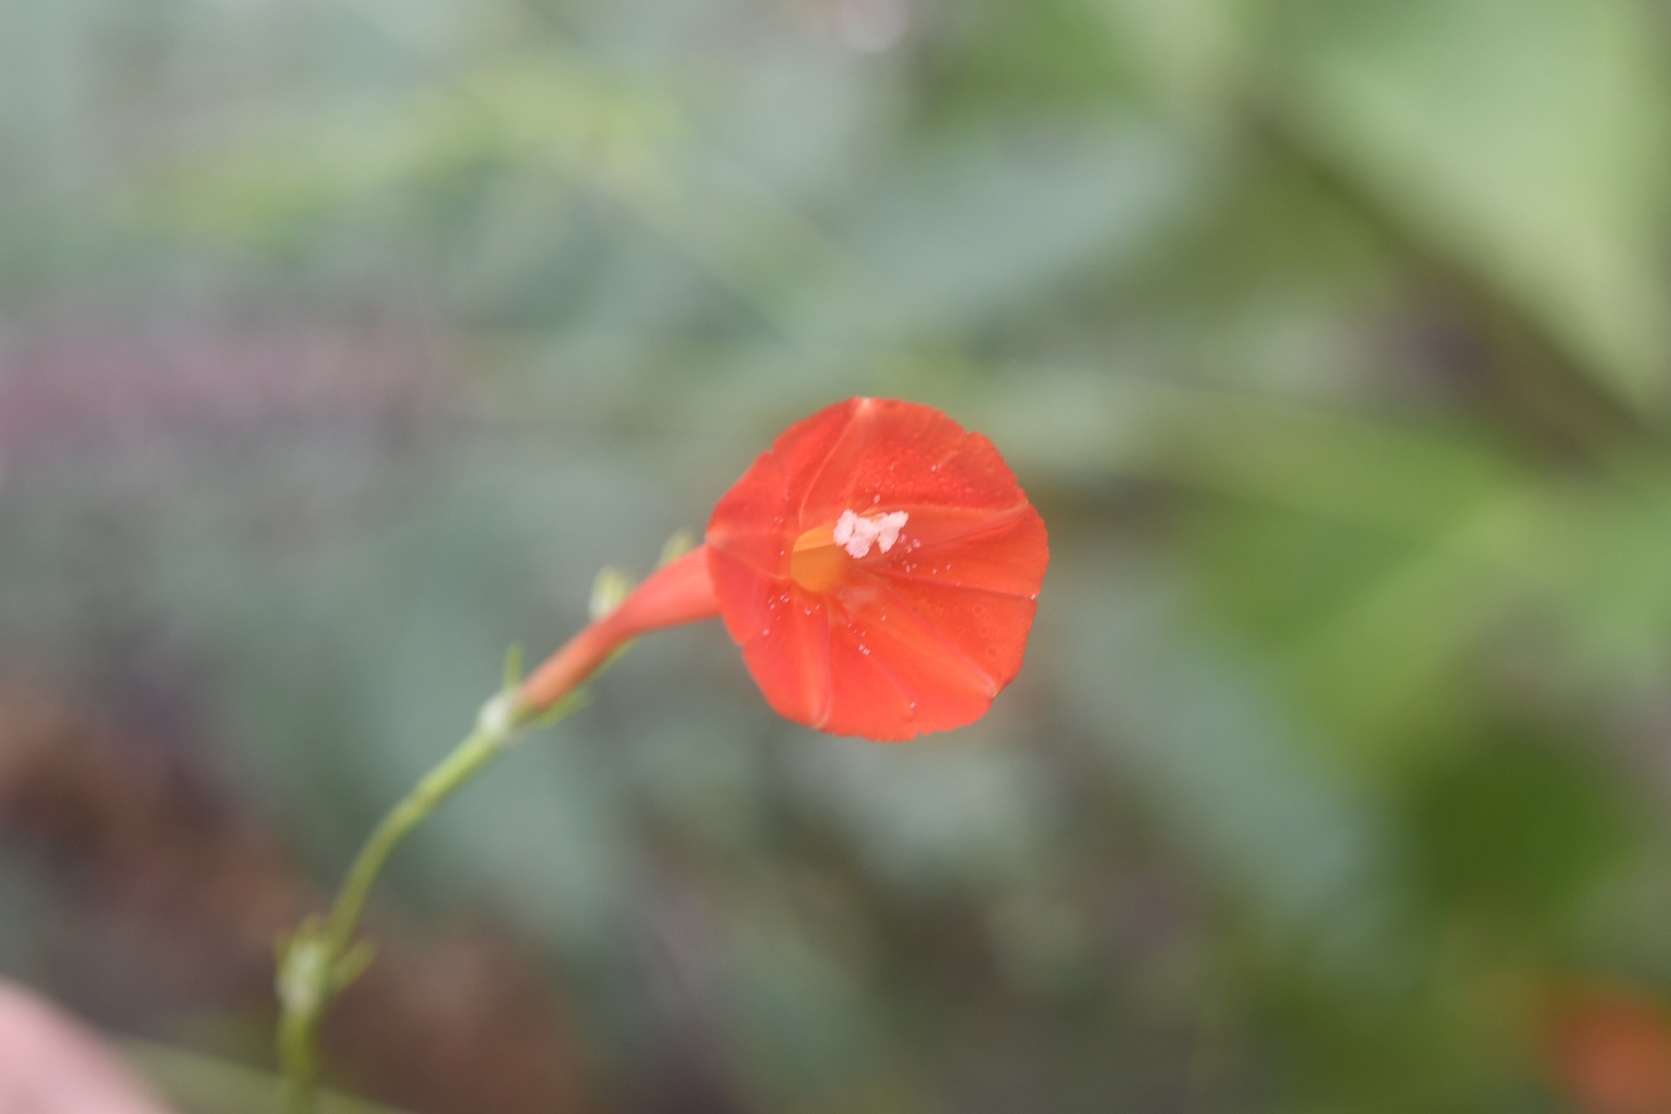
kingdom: Plantae
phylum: Tracheophyta
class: Magnoliopsida
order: Solanales
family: Convolvulaceae
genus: Ipomoea
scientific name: Ipomoea hederifolia
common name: Ivy-leaf morning-glory
